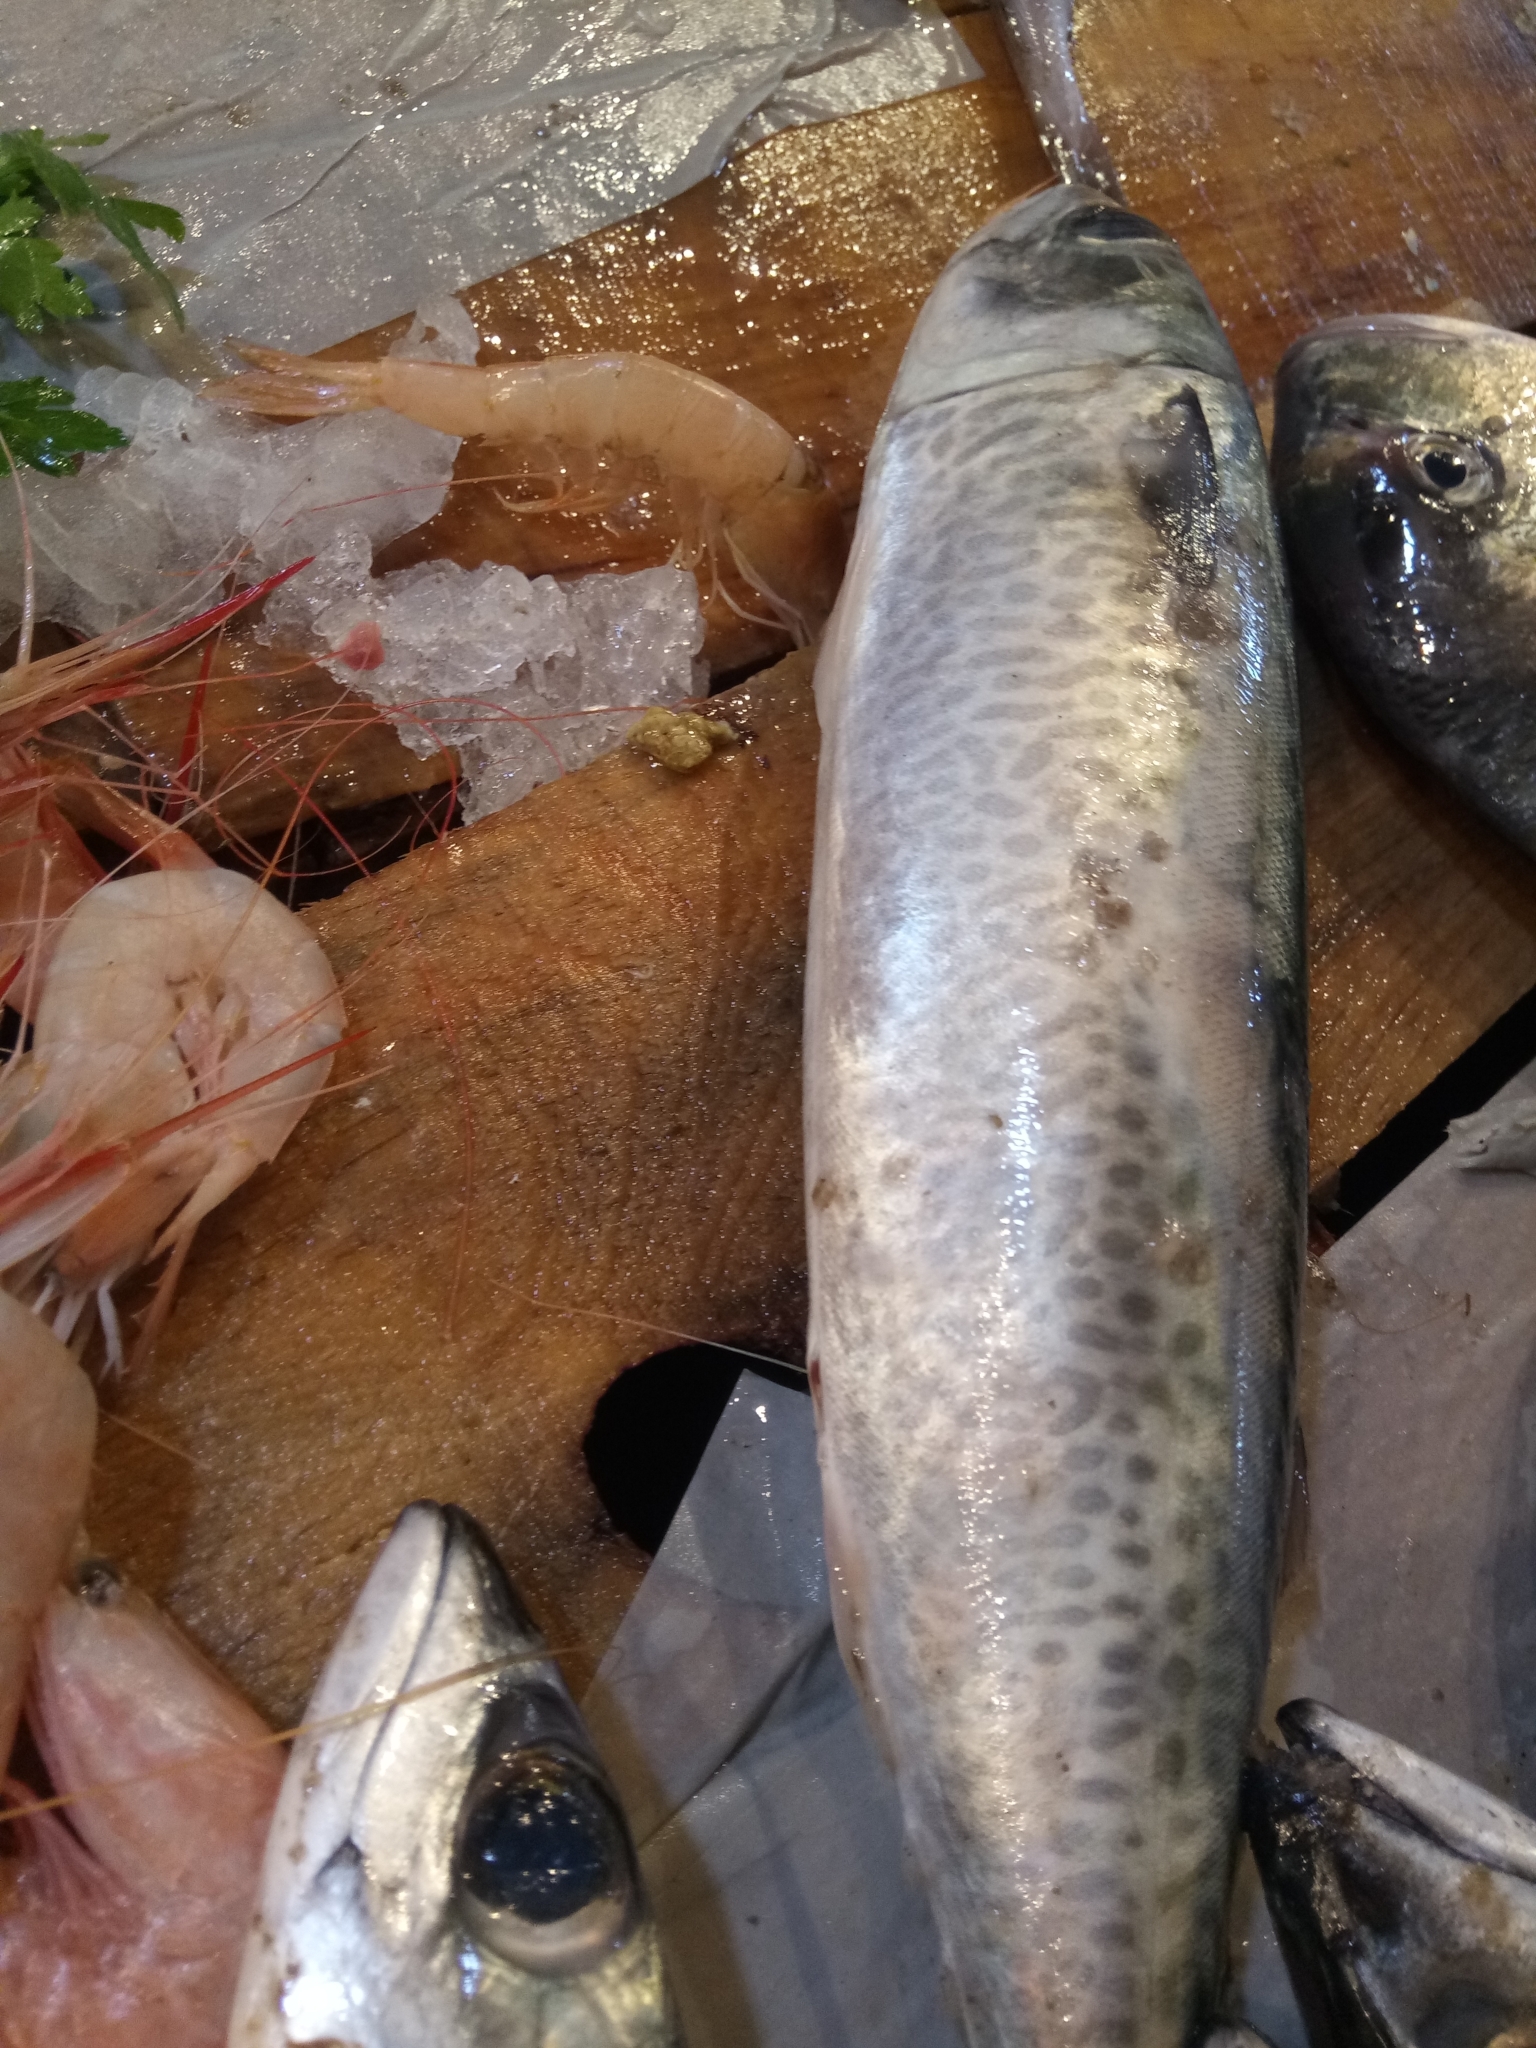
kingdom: Animalia
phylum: Chordata
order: Perciformes
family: Scombridae
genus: Scomber
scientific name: Scomber colias
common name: Atlantic chub mackerel
